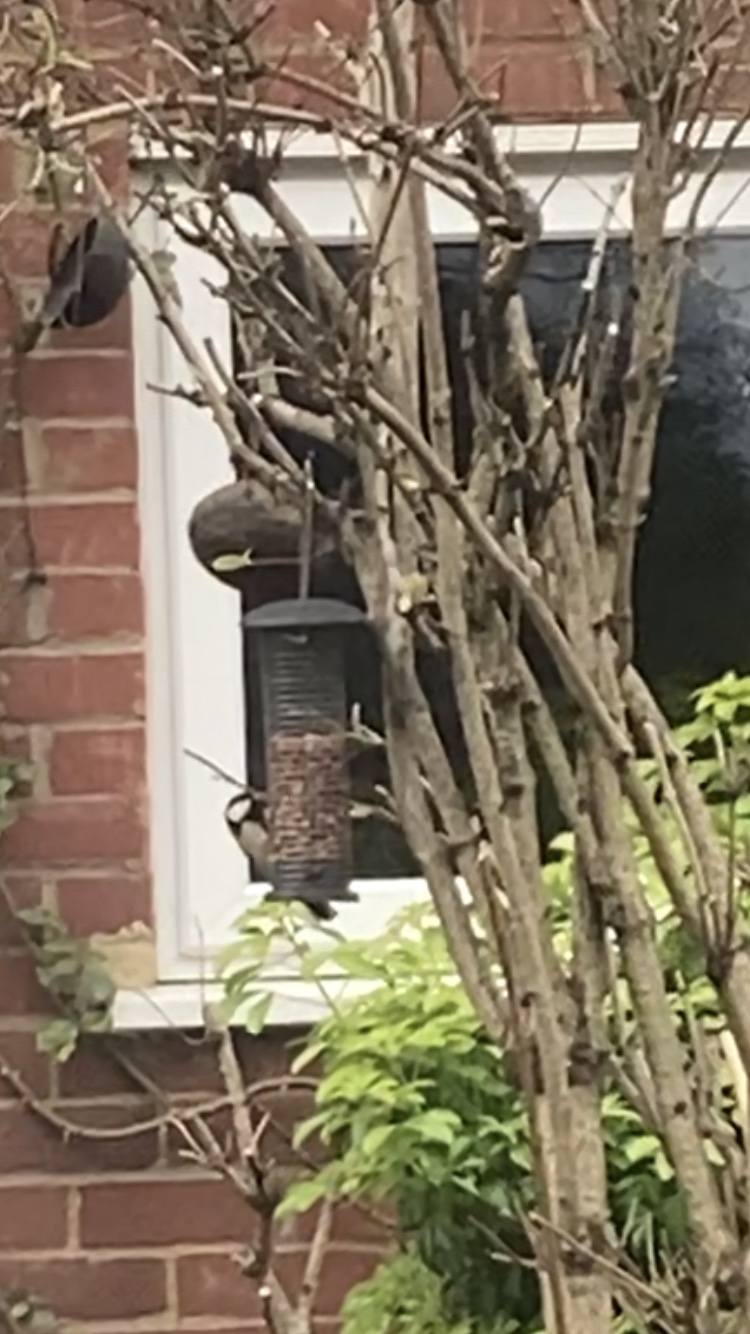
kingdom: Animalia
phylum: Chordata
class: Aves
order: Passeriformes
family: Paridae
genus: Parus
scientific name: Parus major
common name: Great tit
